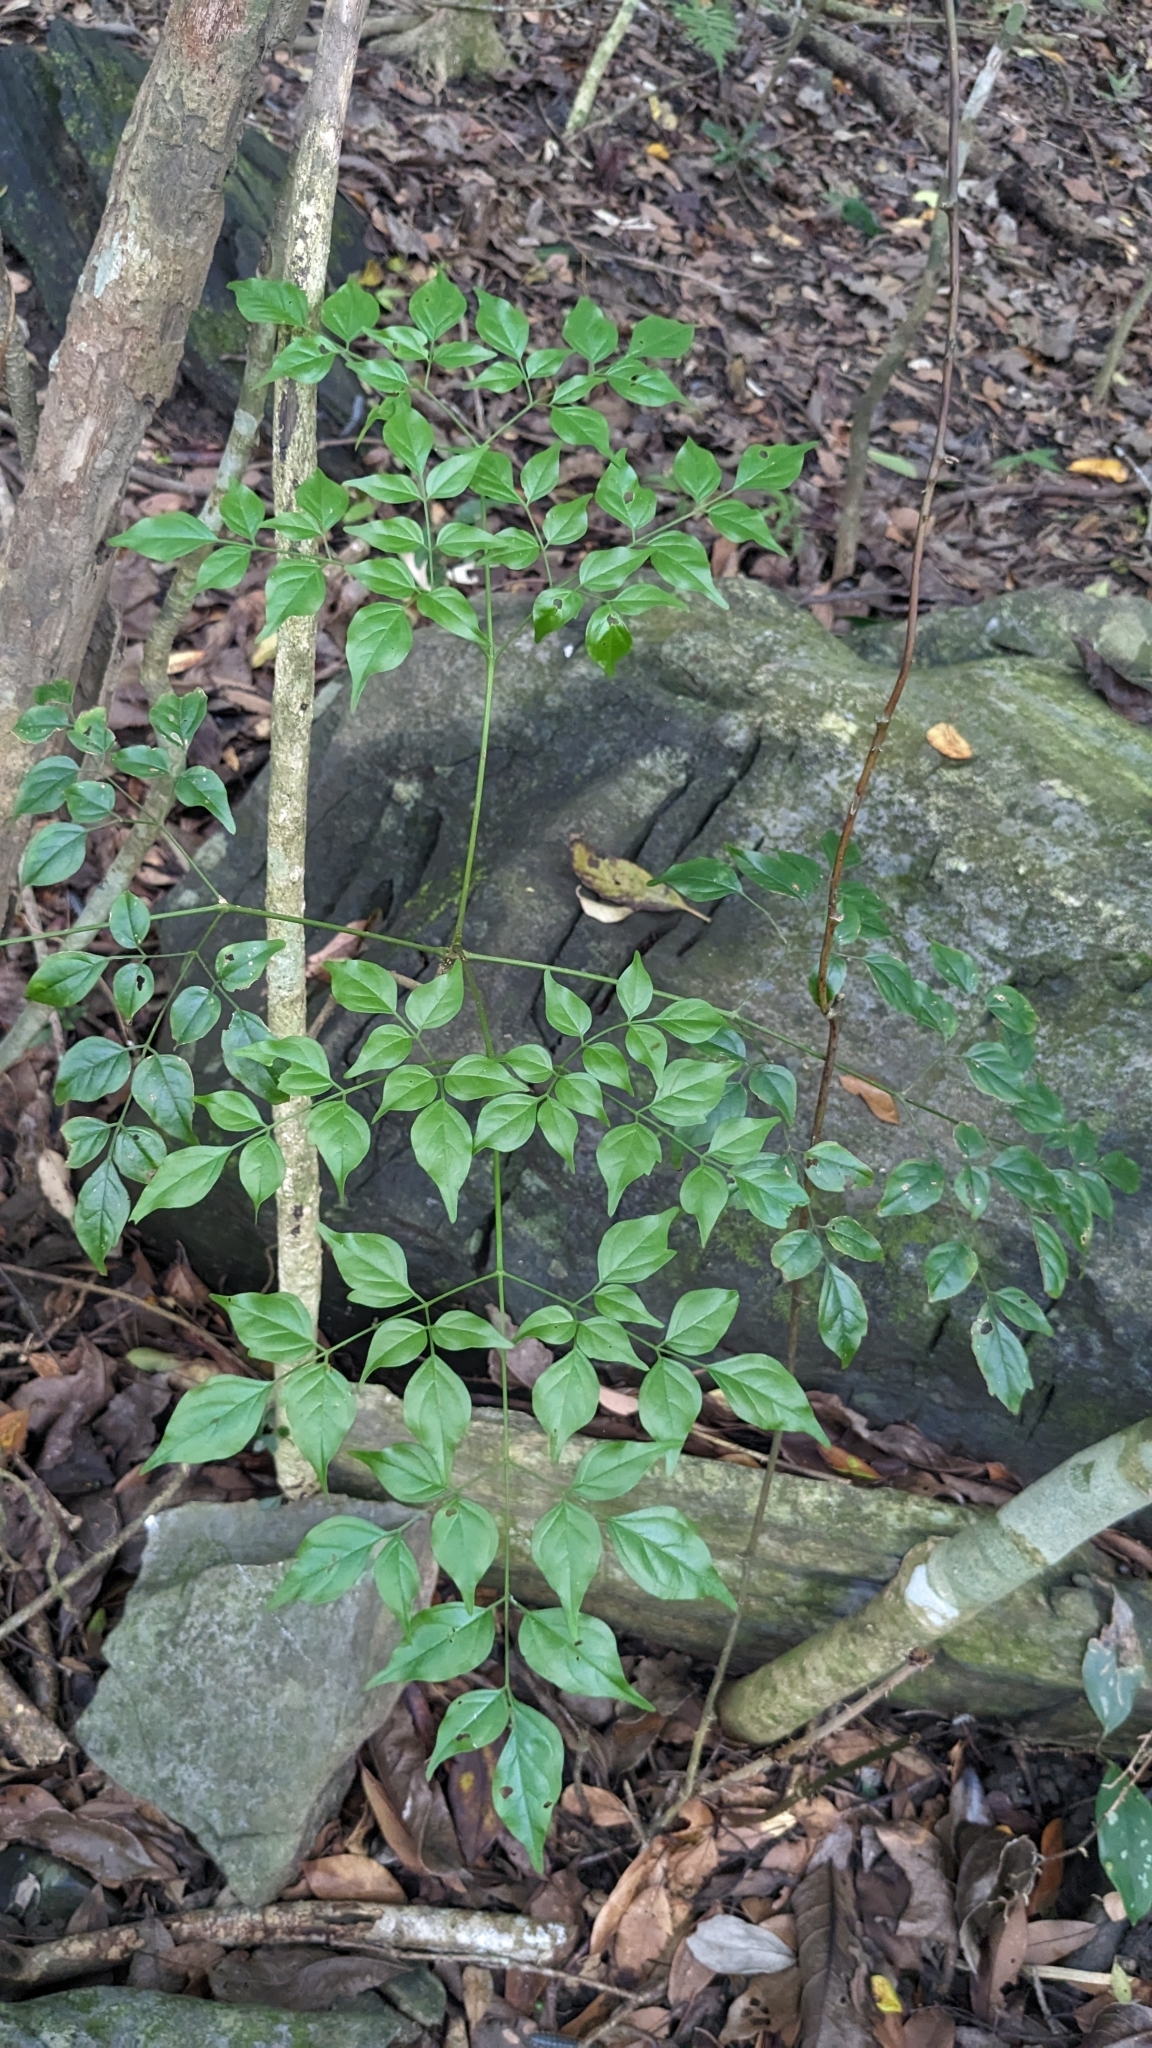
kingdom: Plantae
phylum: Tracheophyta
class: Magnoliopsida
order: Lamiales
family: Bignoniaceae
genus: Radermachera
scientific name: Radermachera sinica
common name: China doll plant
